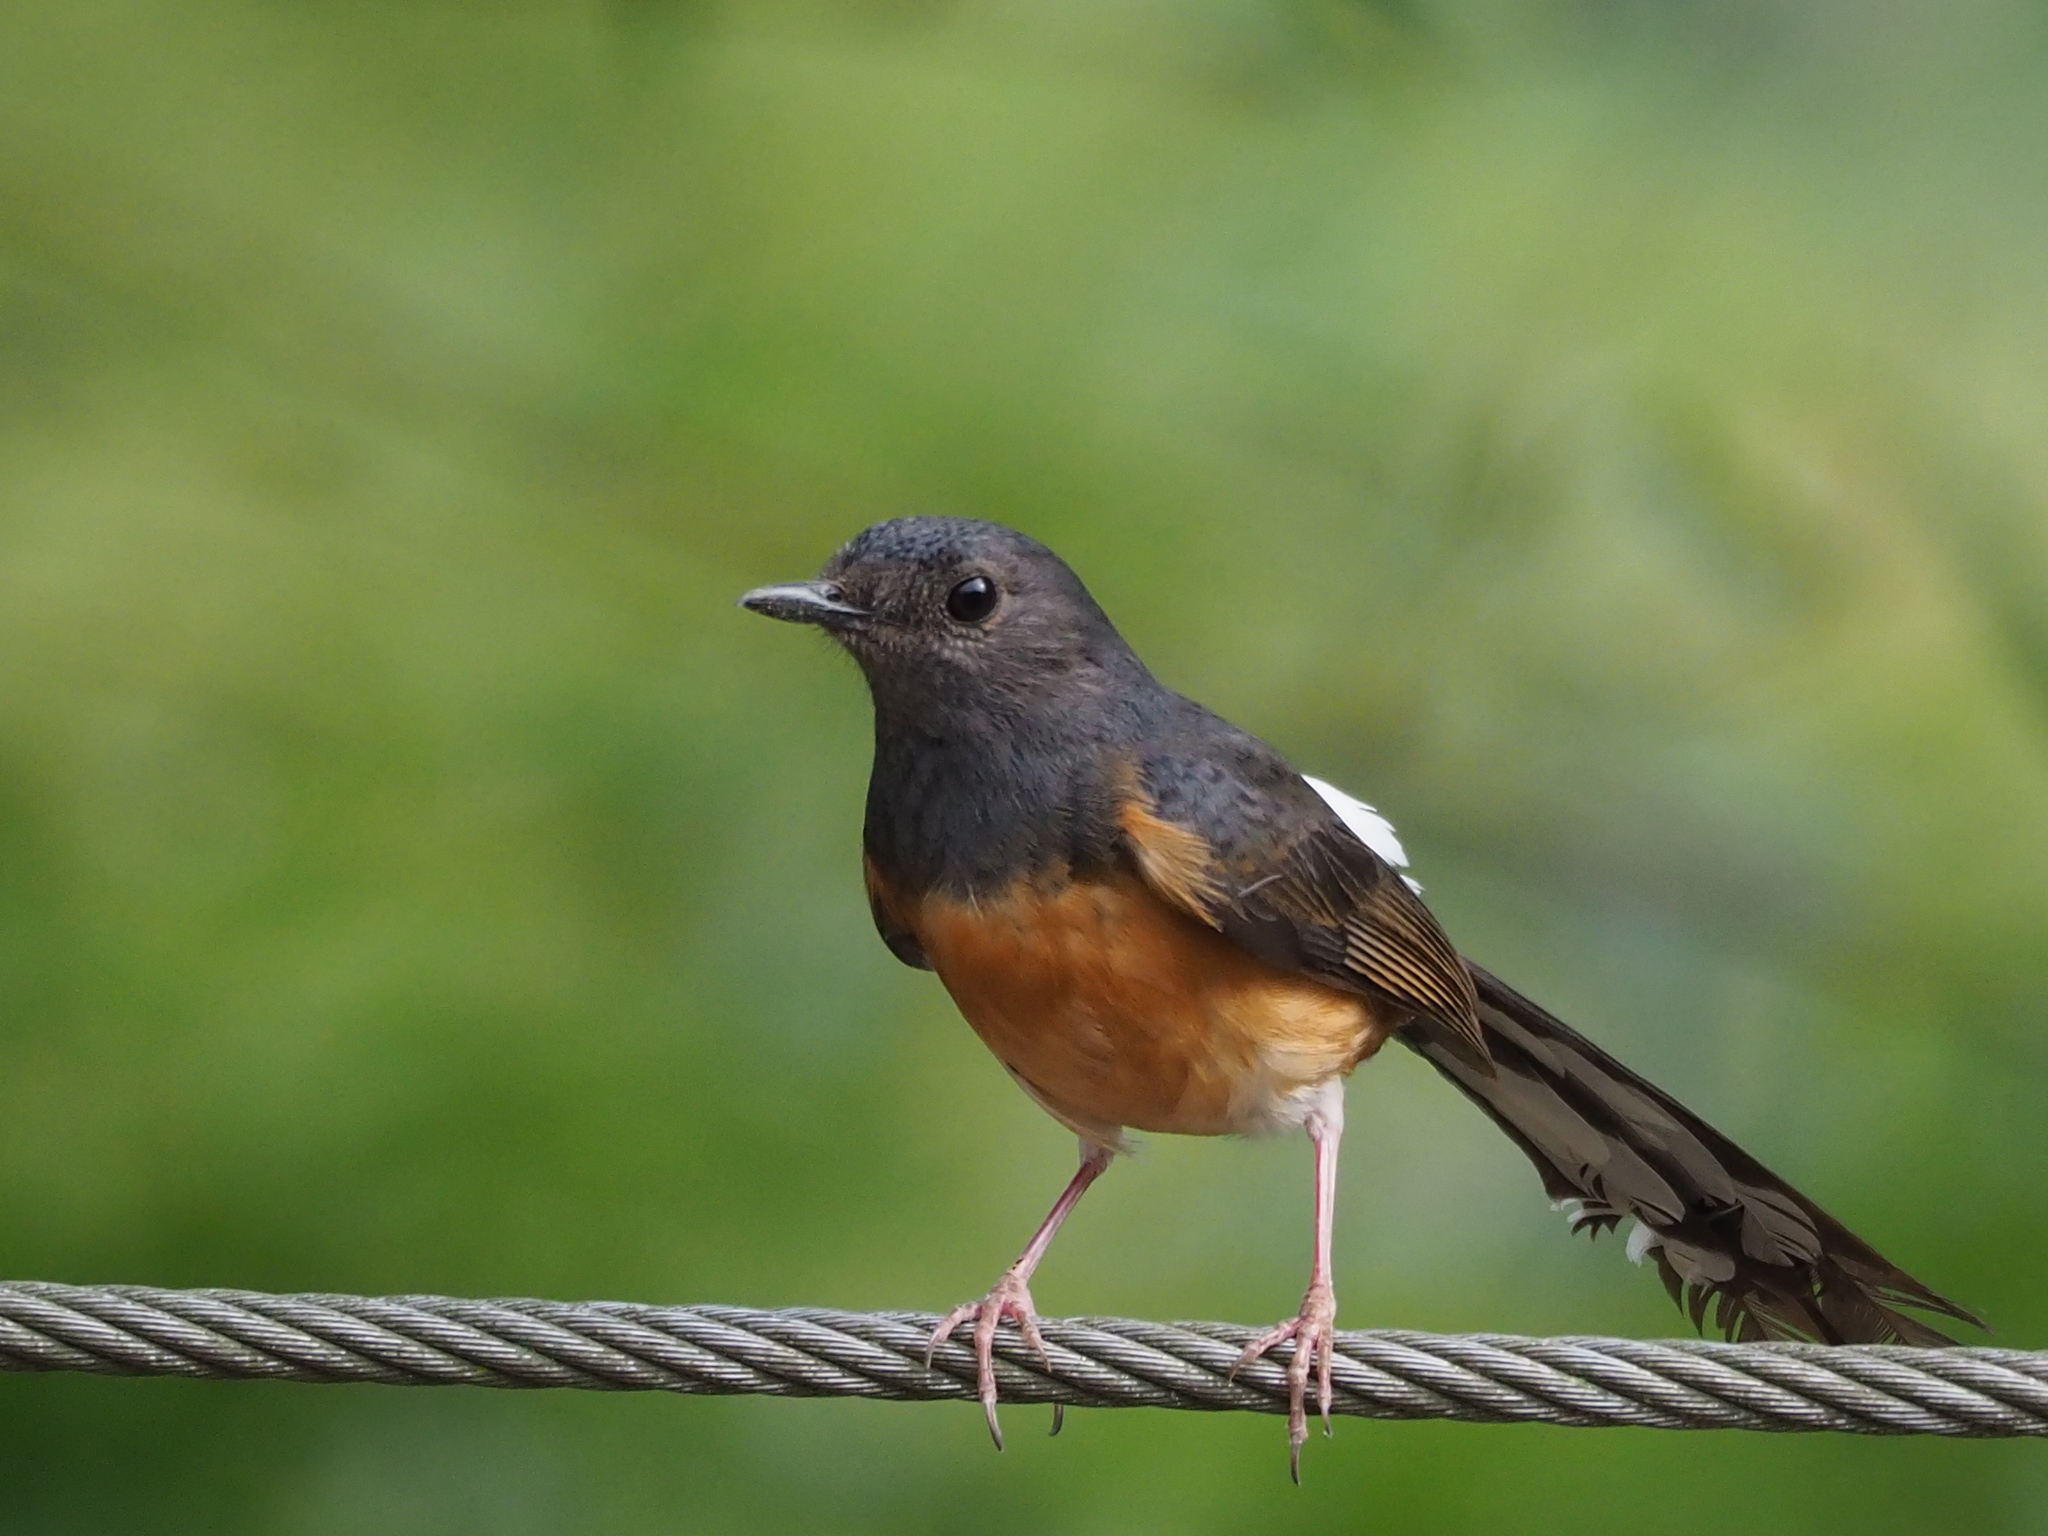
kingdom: Animalia
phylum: Chordata
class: Aves
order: Passeriformes
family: Muscicapidae
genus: Copsychus
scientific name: Copsychus malabaricus
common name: White-rumped shama
